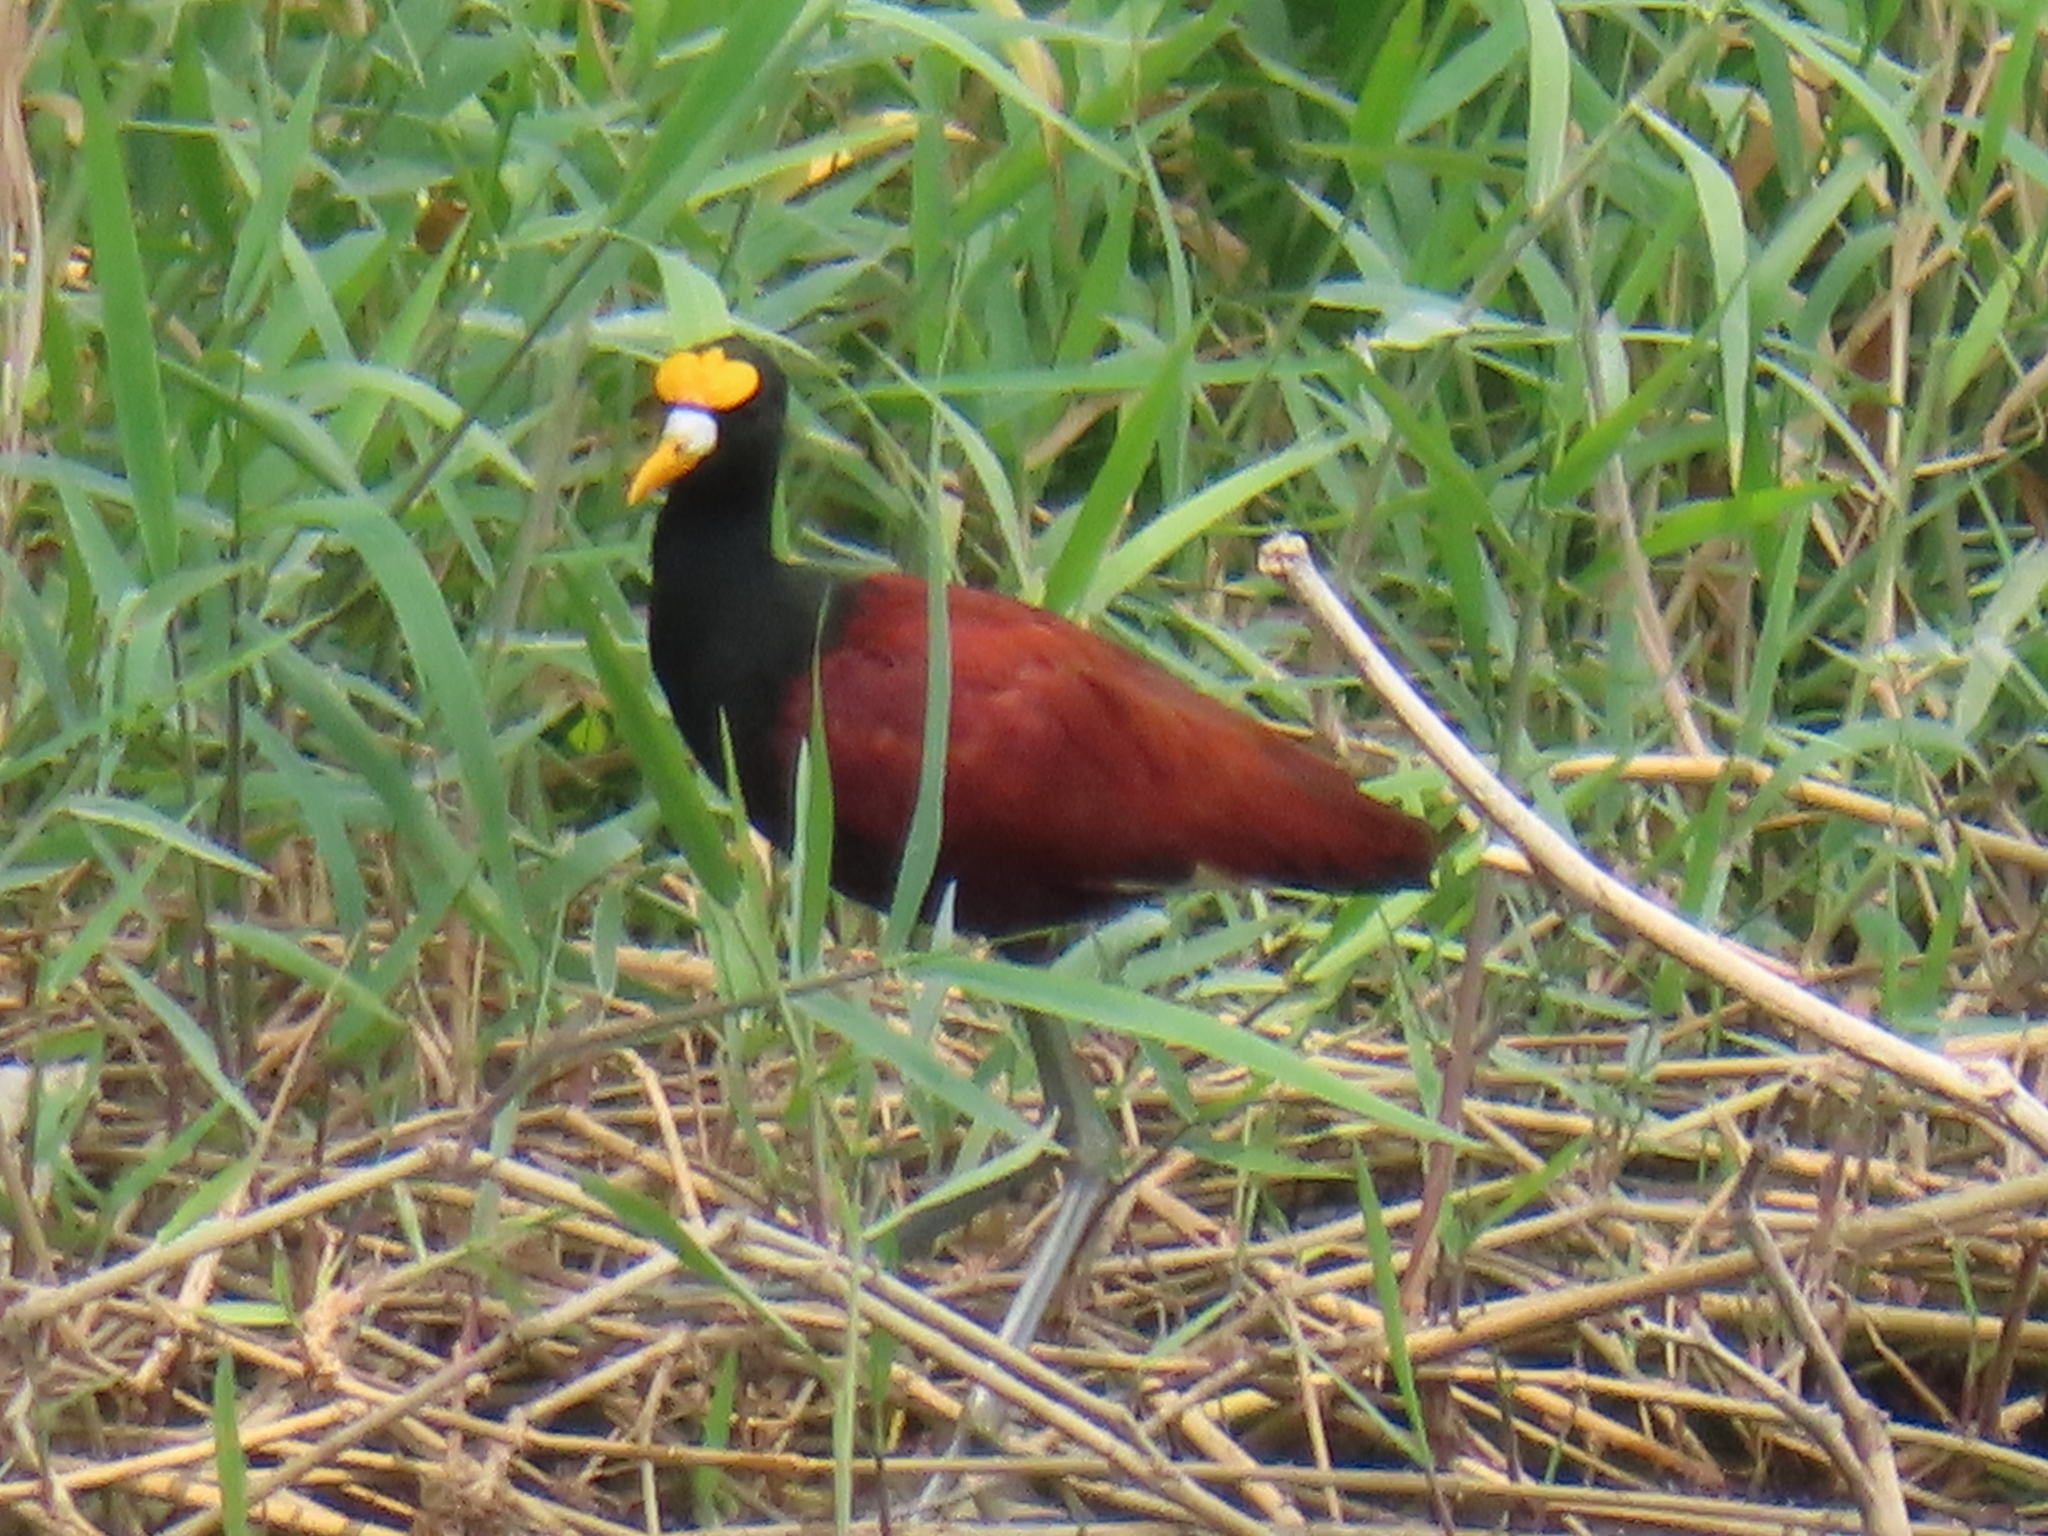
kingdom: Animalia
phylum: Chordata
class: Aves
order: Charadriiformes
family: Jacanidae
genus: Jacana
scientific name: Jacana spinosa
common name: Northern jacana
